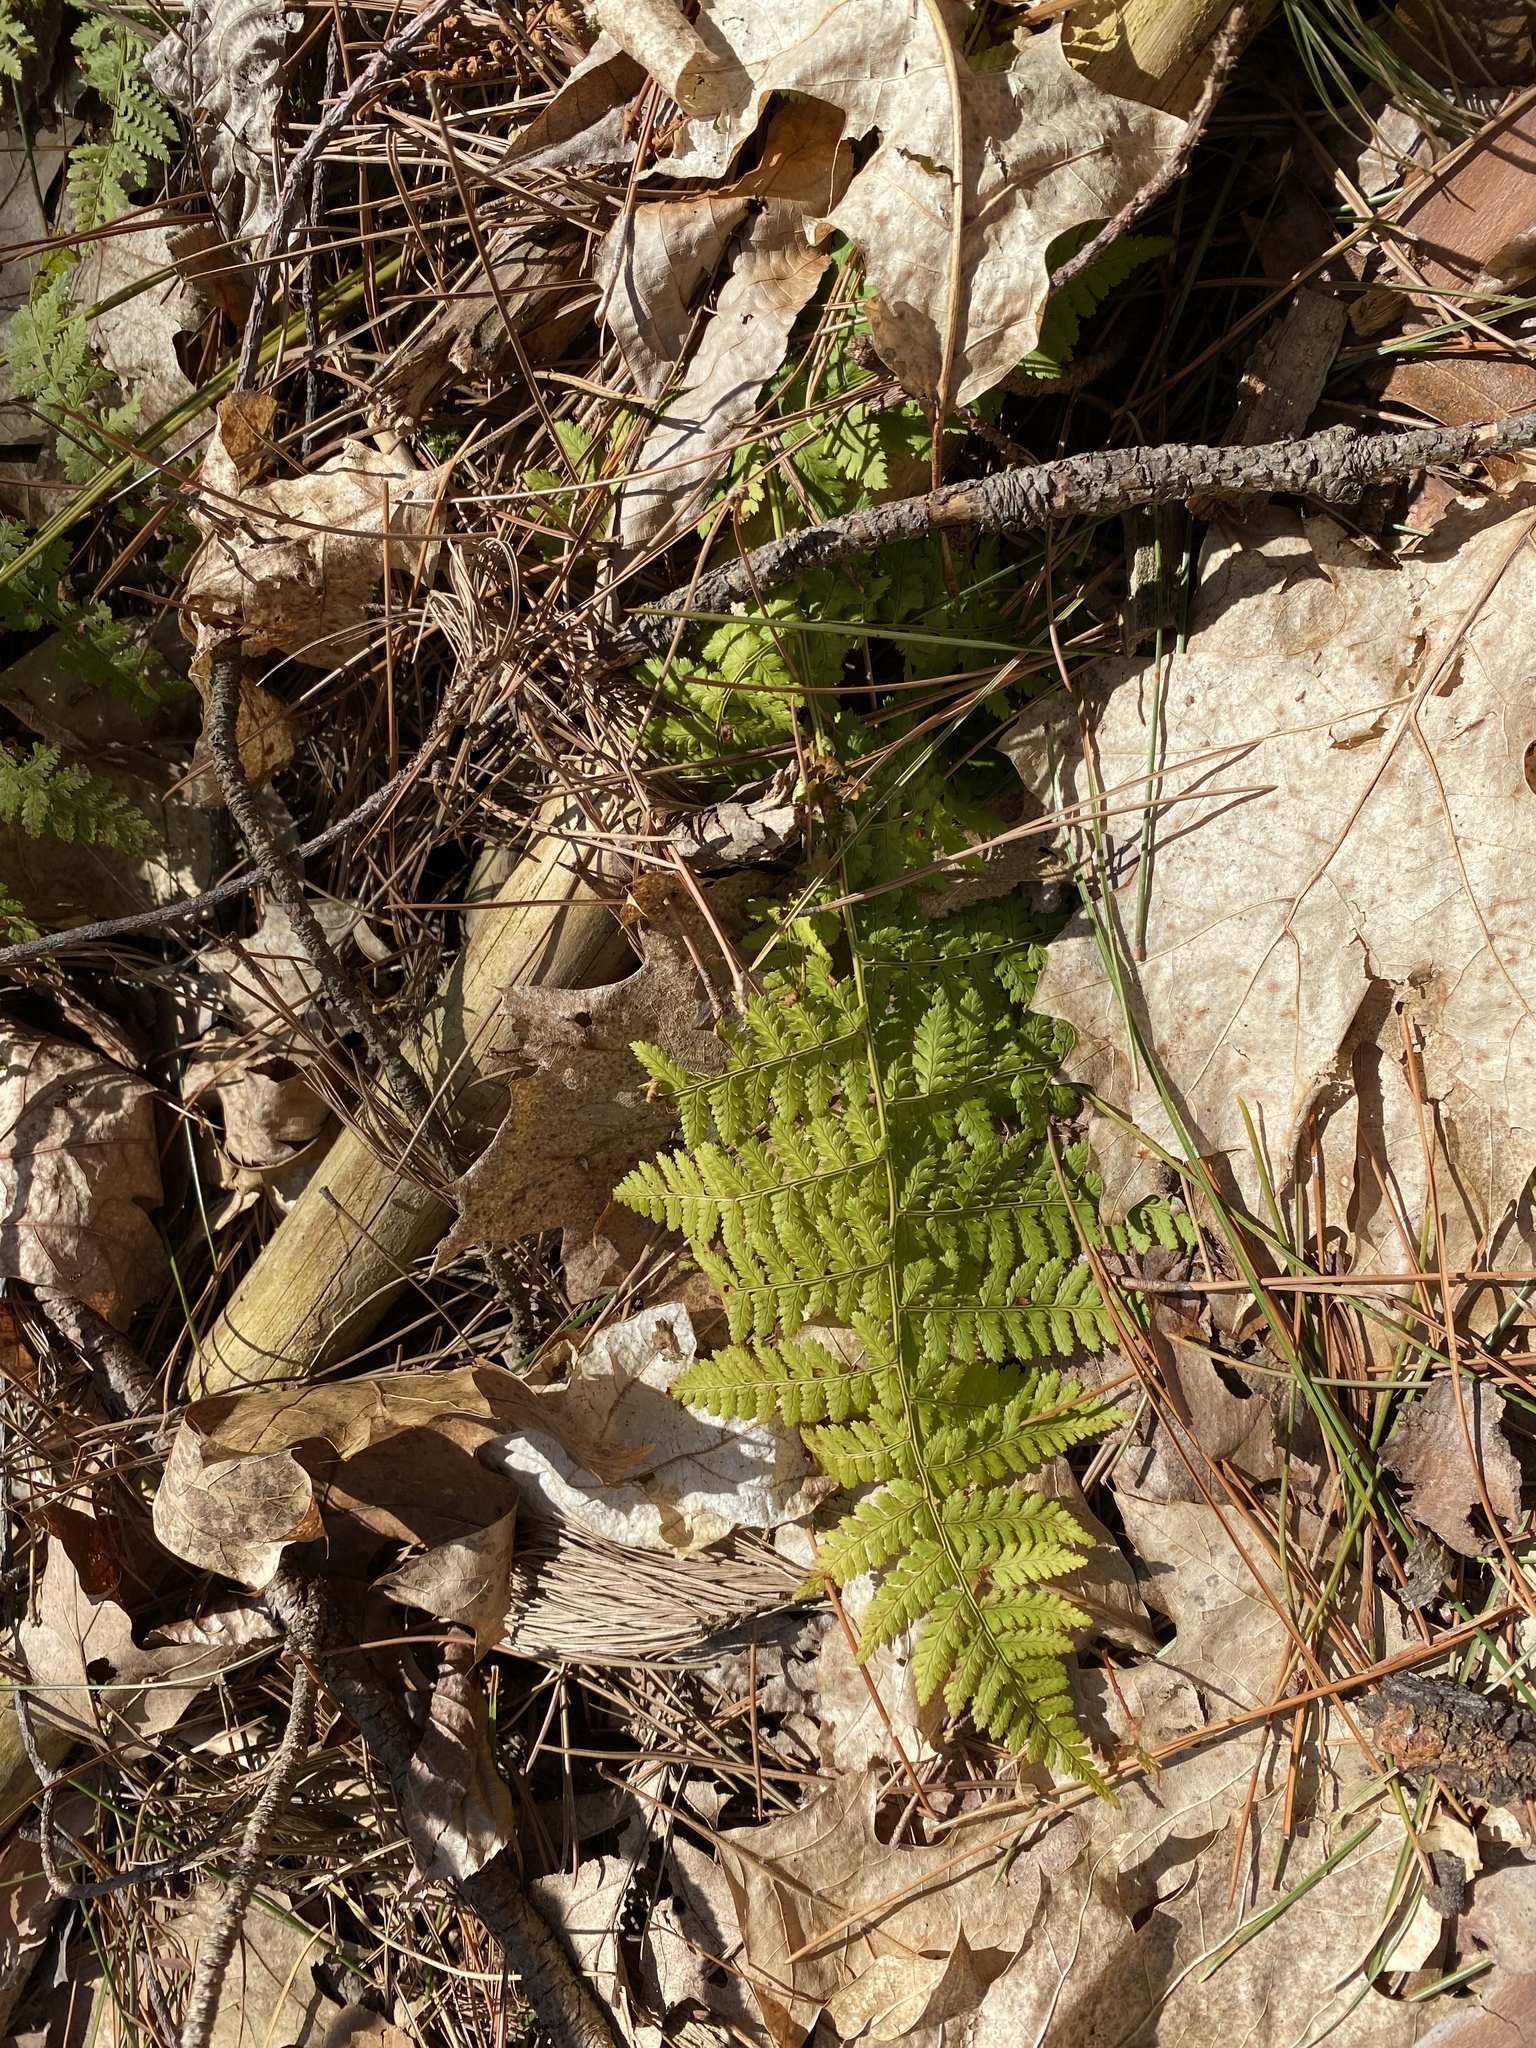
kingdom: Plantae
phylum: Tracheophyta
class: Polypodiopsida
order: Polypodiales
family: Dryopteridaceae
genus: Dryopteris
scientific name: Dryopteris intermedia
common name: Evergreen wood fern
